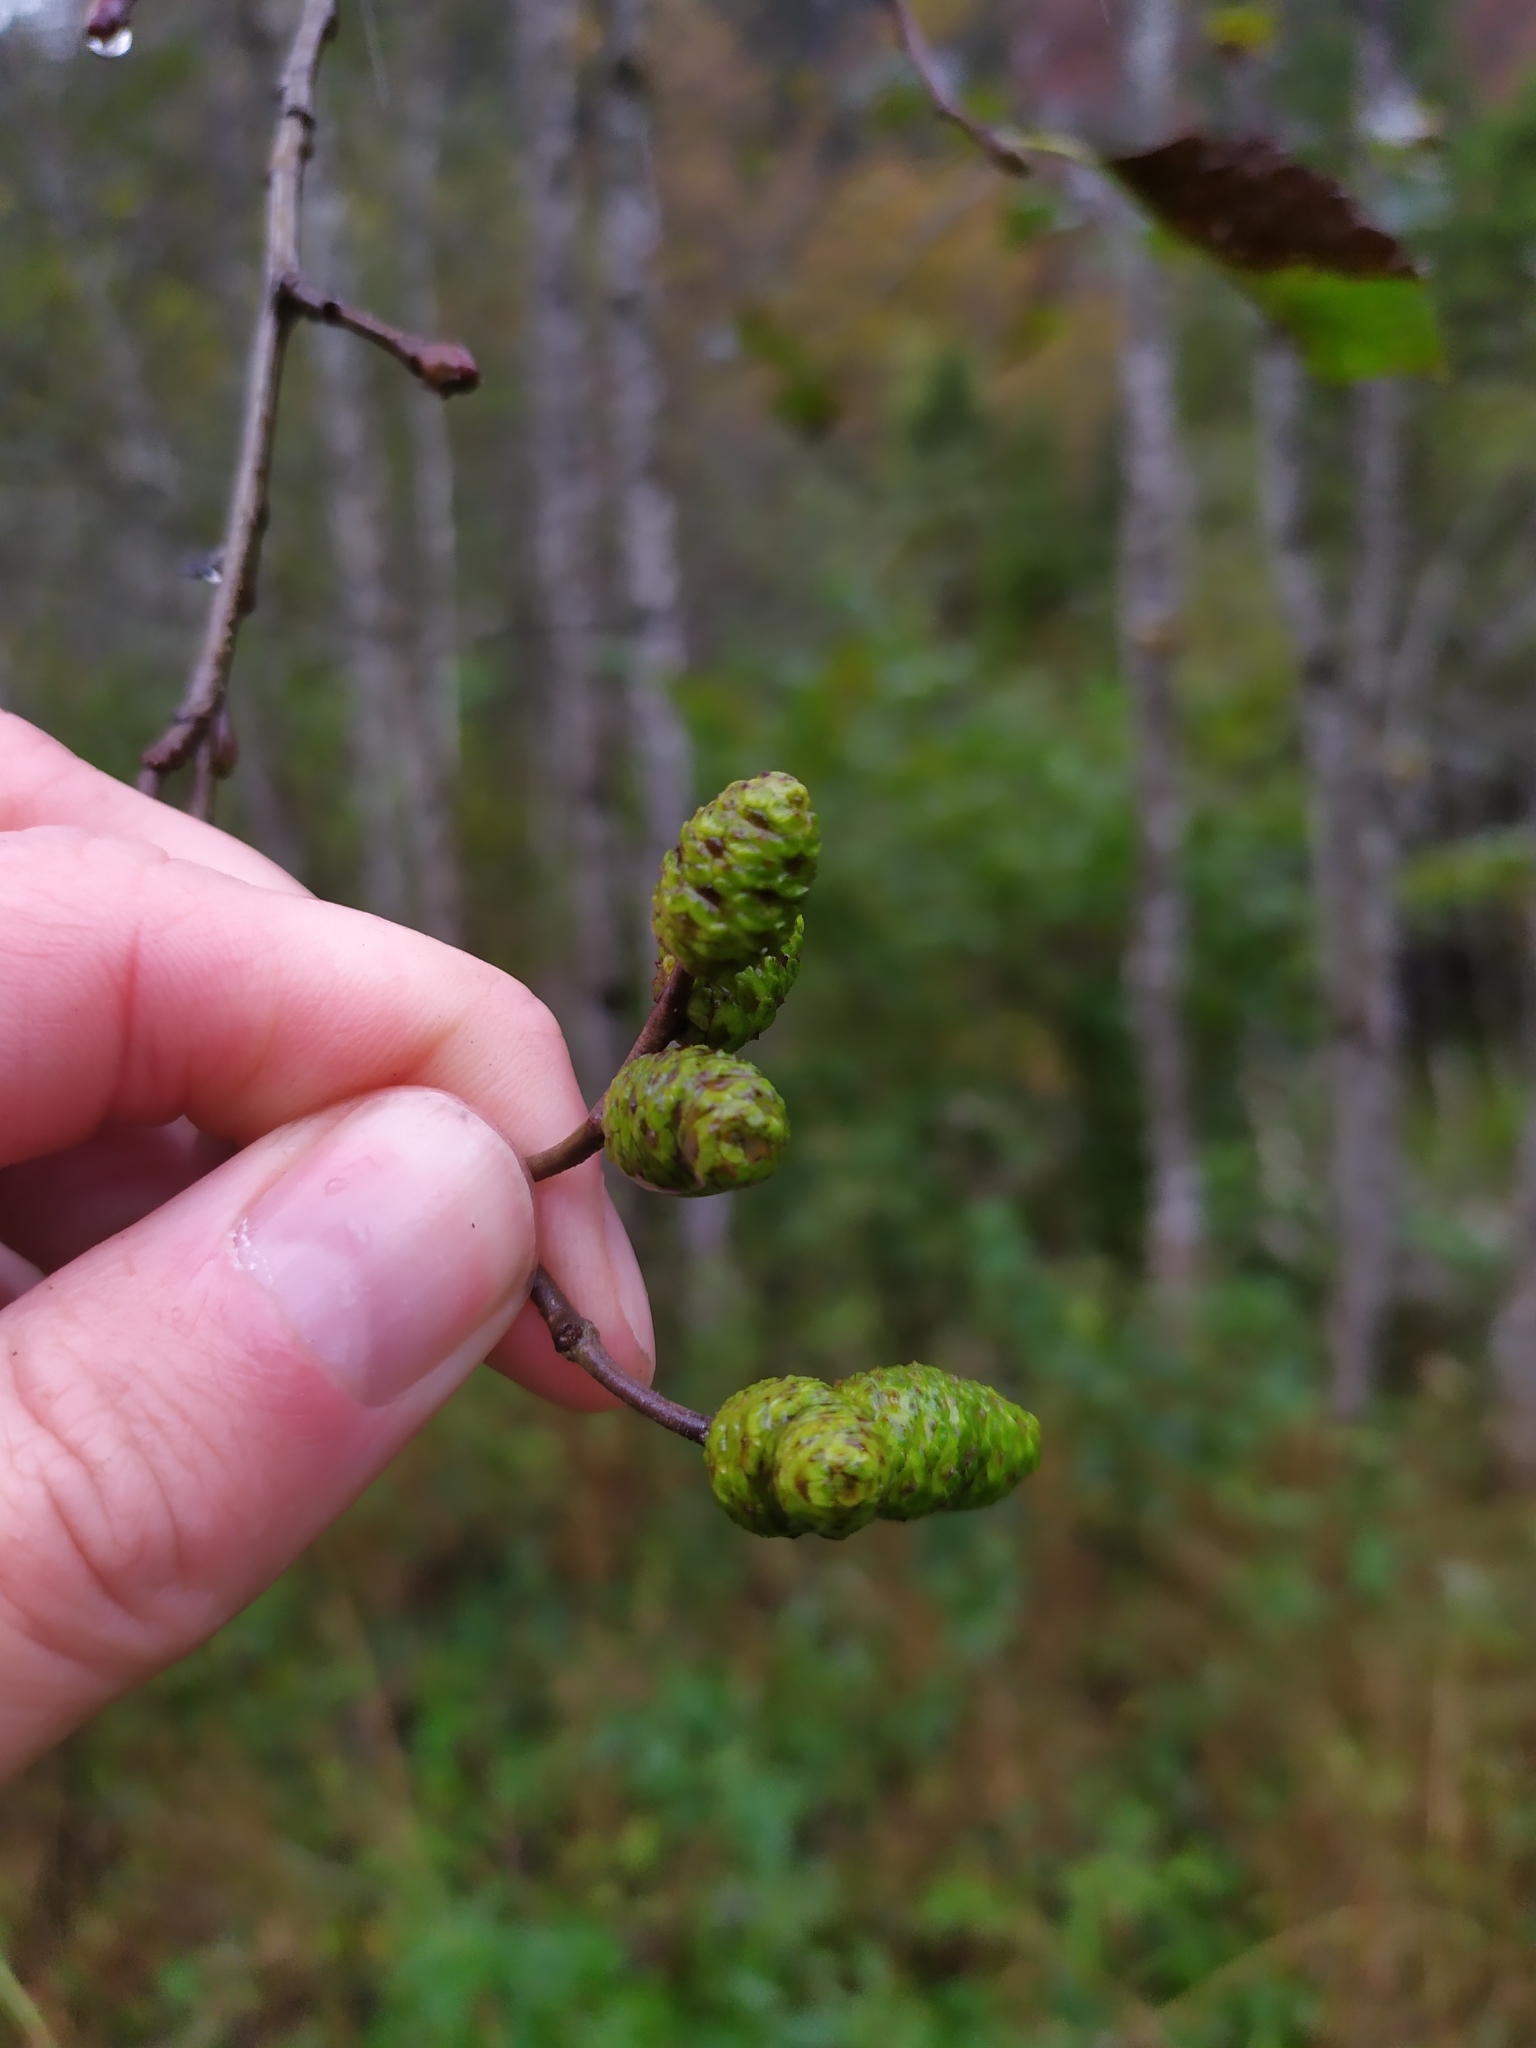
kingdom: Plantae
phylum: Tracheophyta
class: Magnoliopsida
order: Fagales
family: Betulaceae
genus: Alnus
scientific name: Alnus incana
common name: Grey alder
